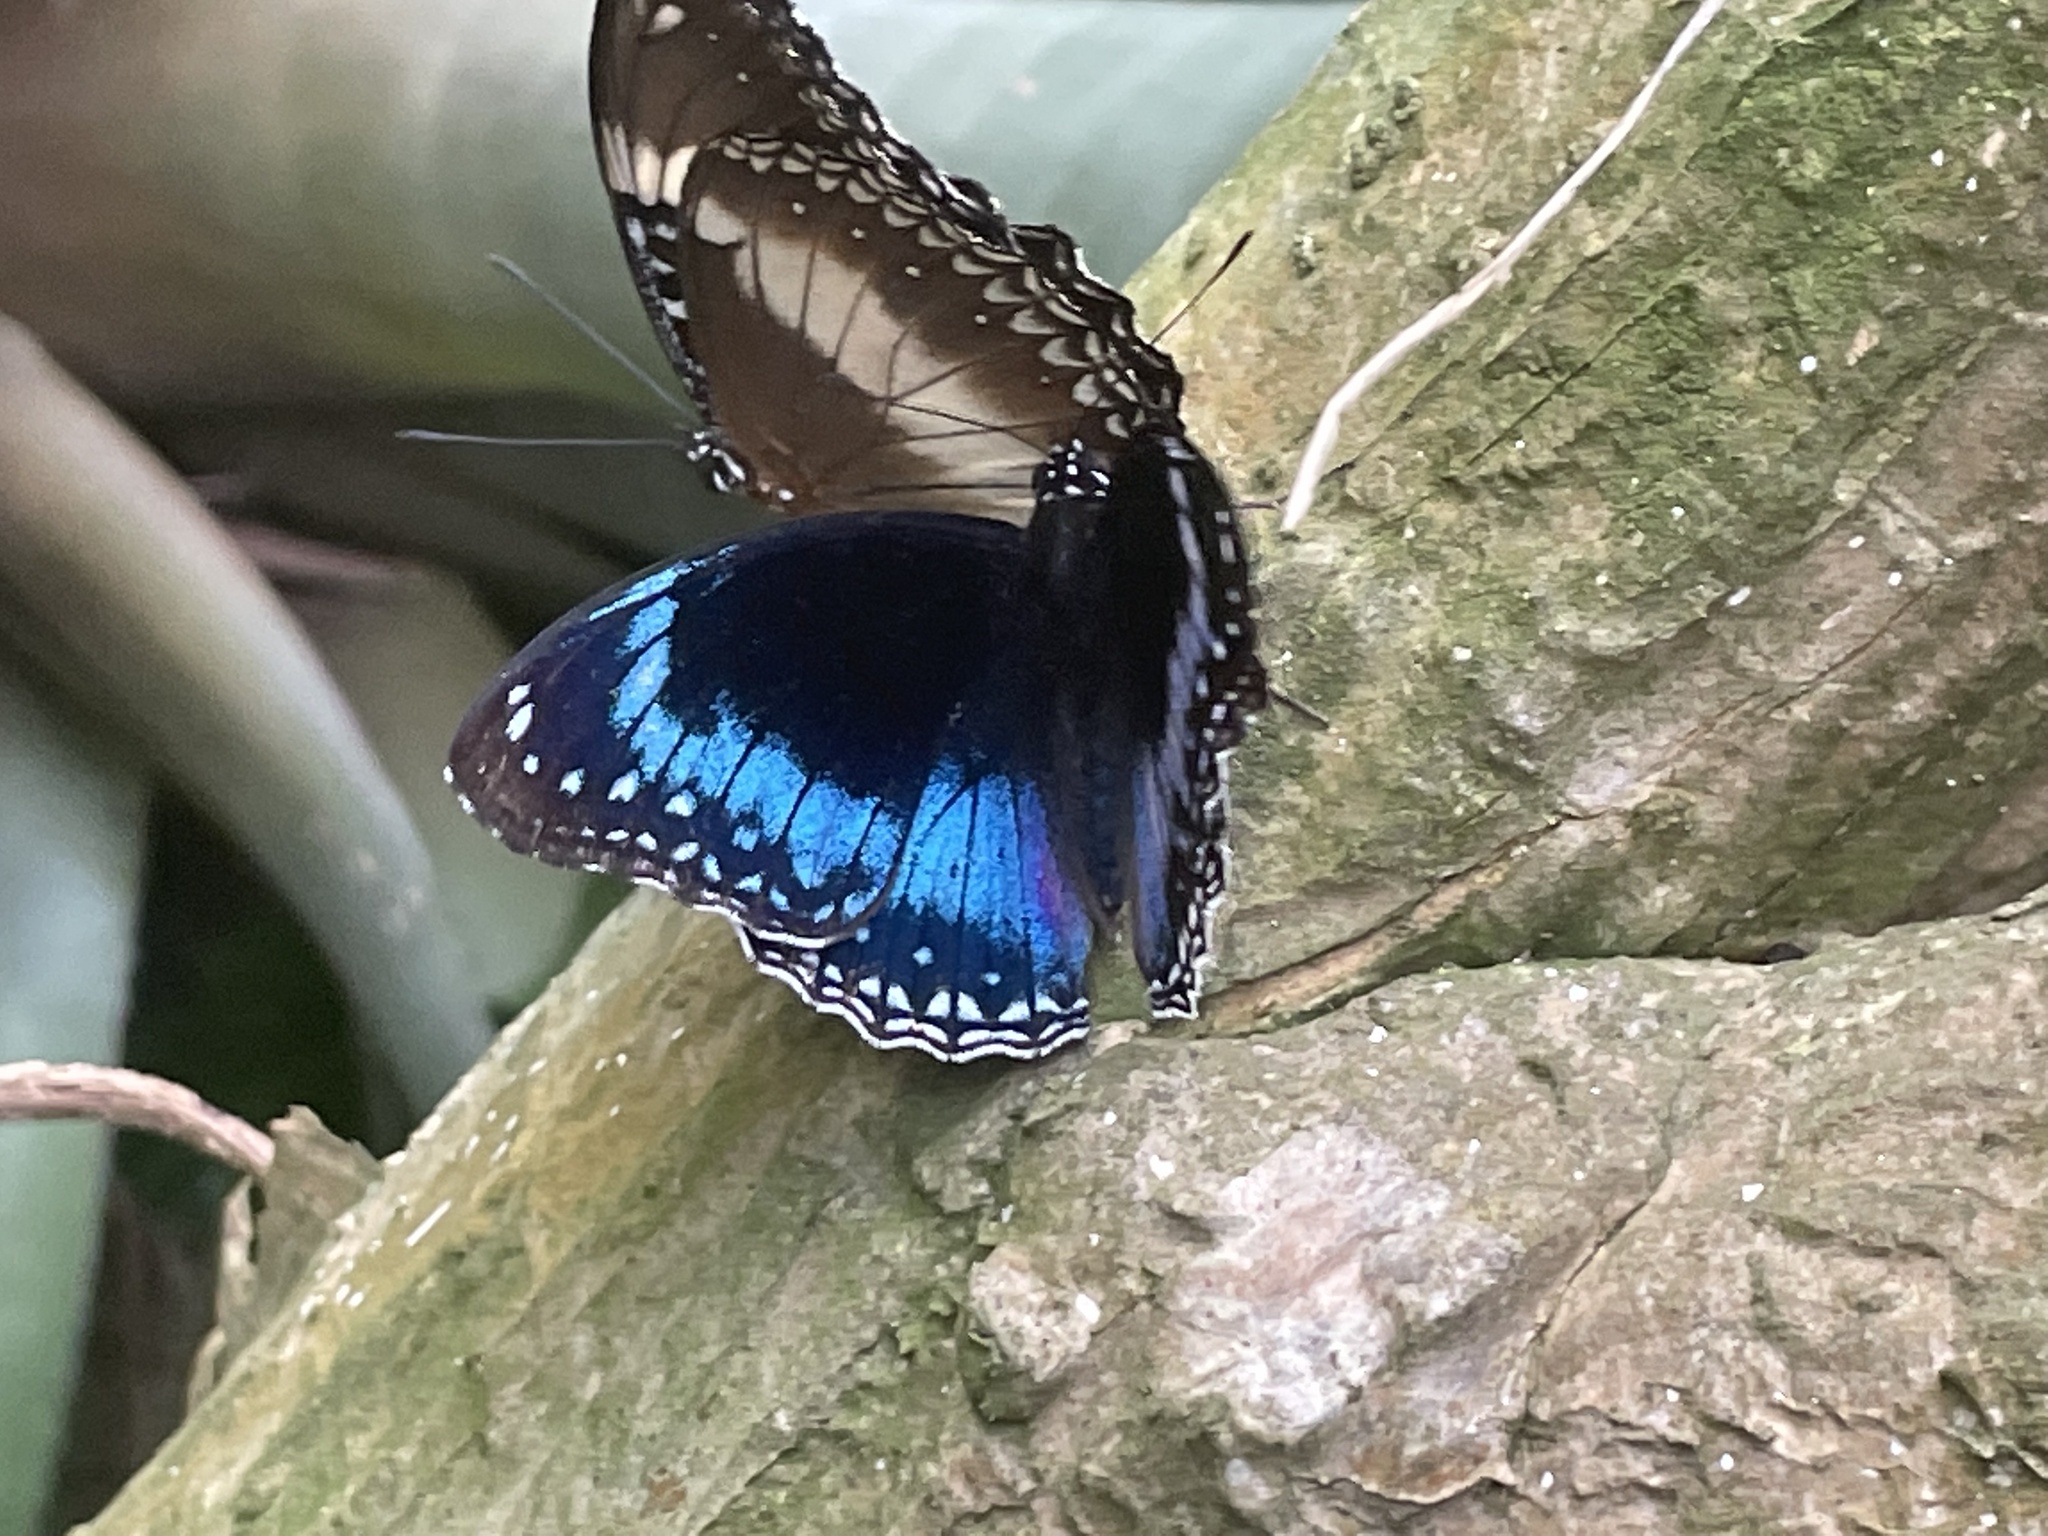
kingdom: Animalia
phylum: Arthropoda
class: Insecta
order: Lepidoptera
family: Nymphalidae
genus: Hypolimnas
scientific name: Hypolimnas alimena
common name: Blue-banded eggfly
